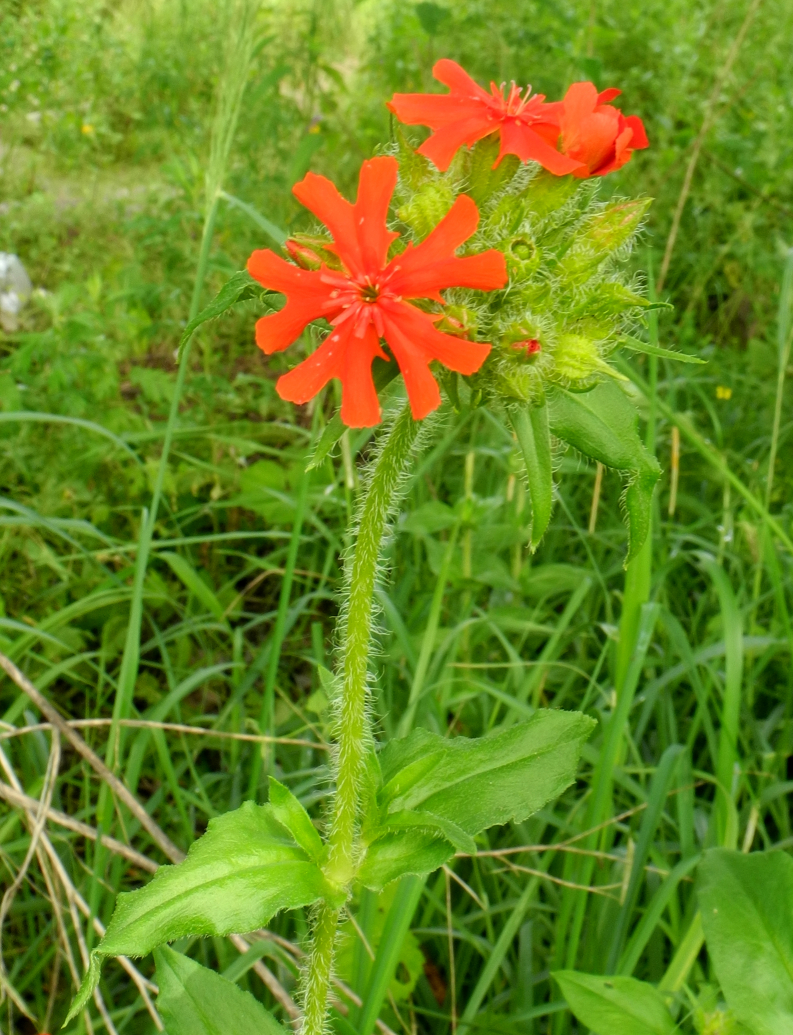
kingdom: Plantae
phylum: Tracheophyta
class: Magnoliopsida
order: Caryophyllales
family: Caryophyllaceae
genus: Silene
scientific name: Silene chalcedonica
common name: Maltese-cross
